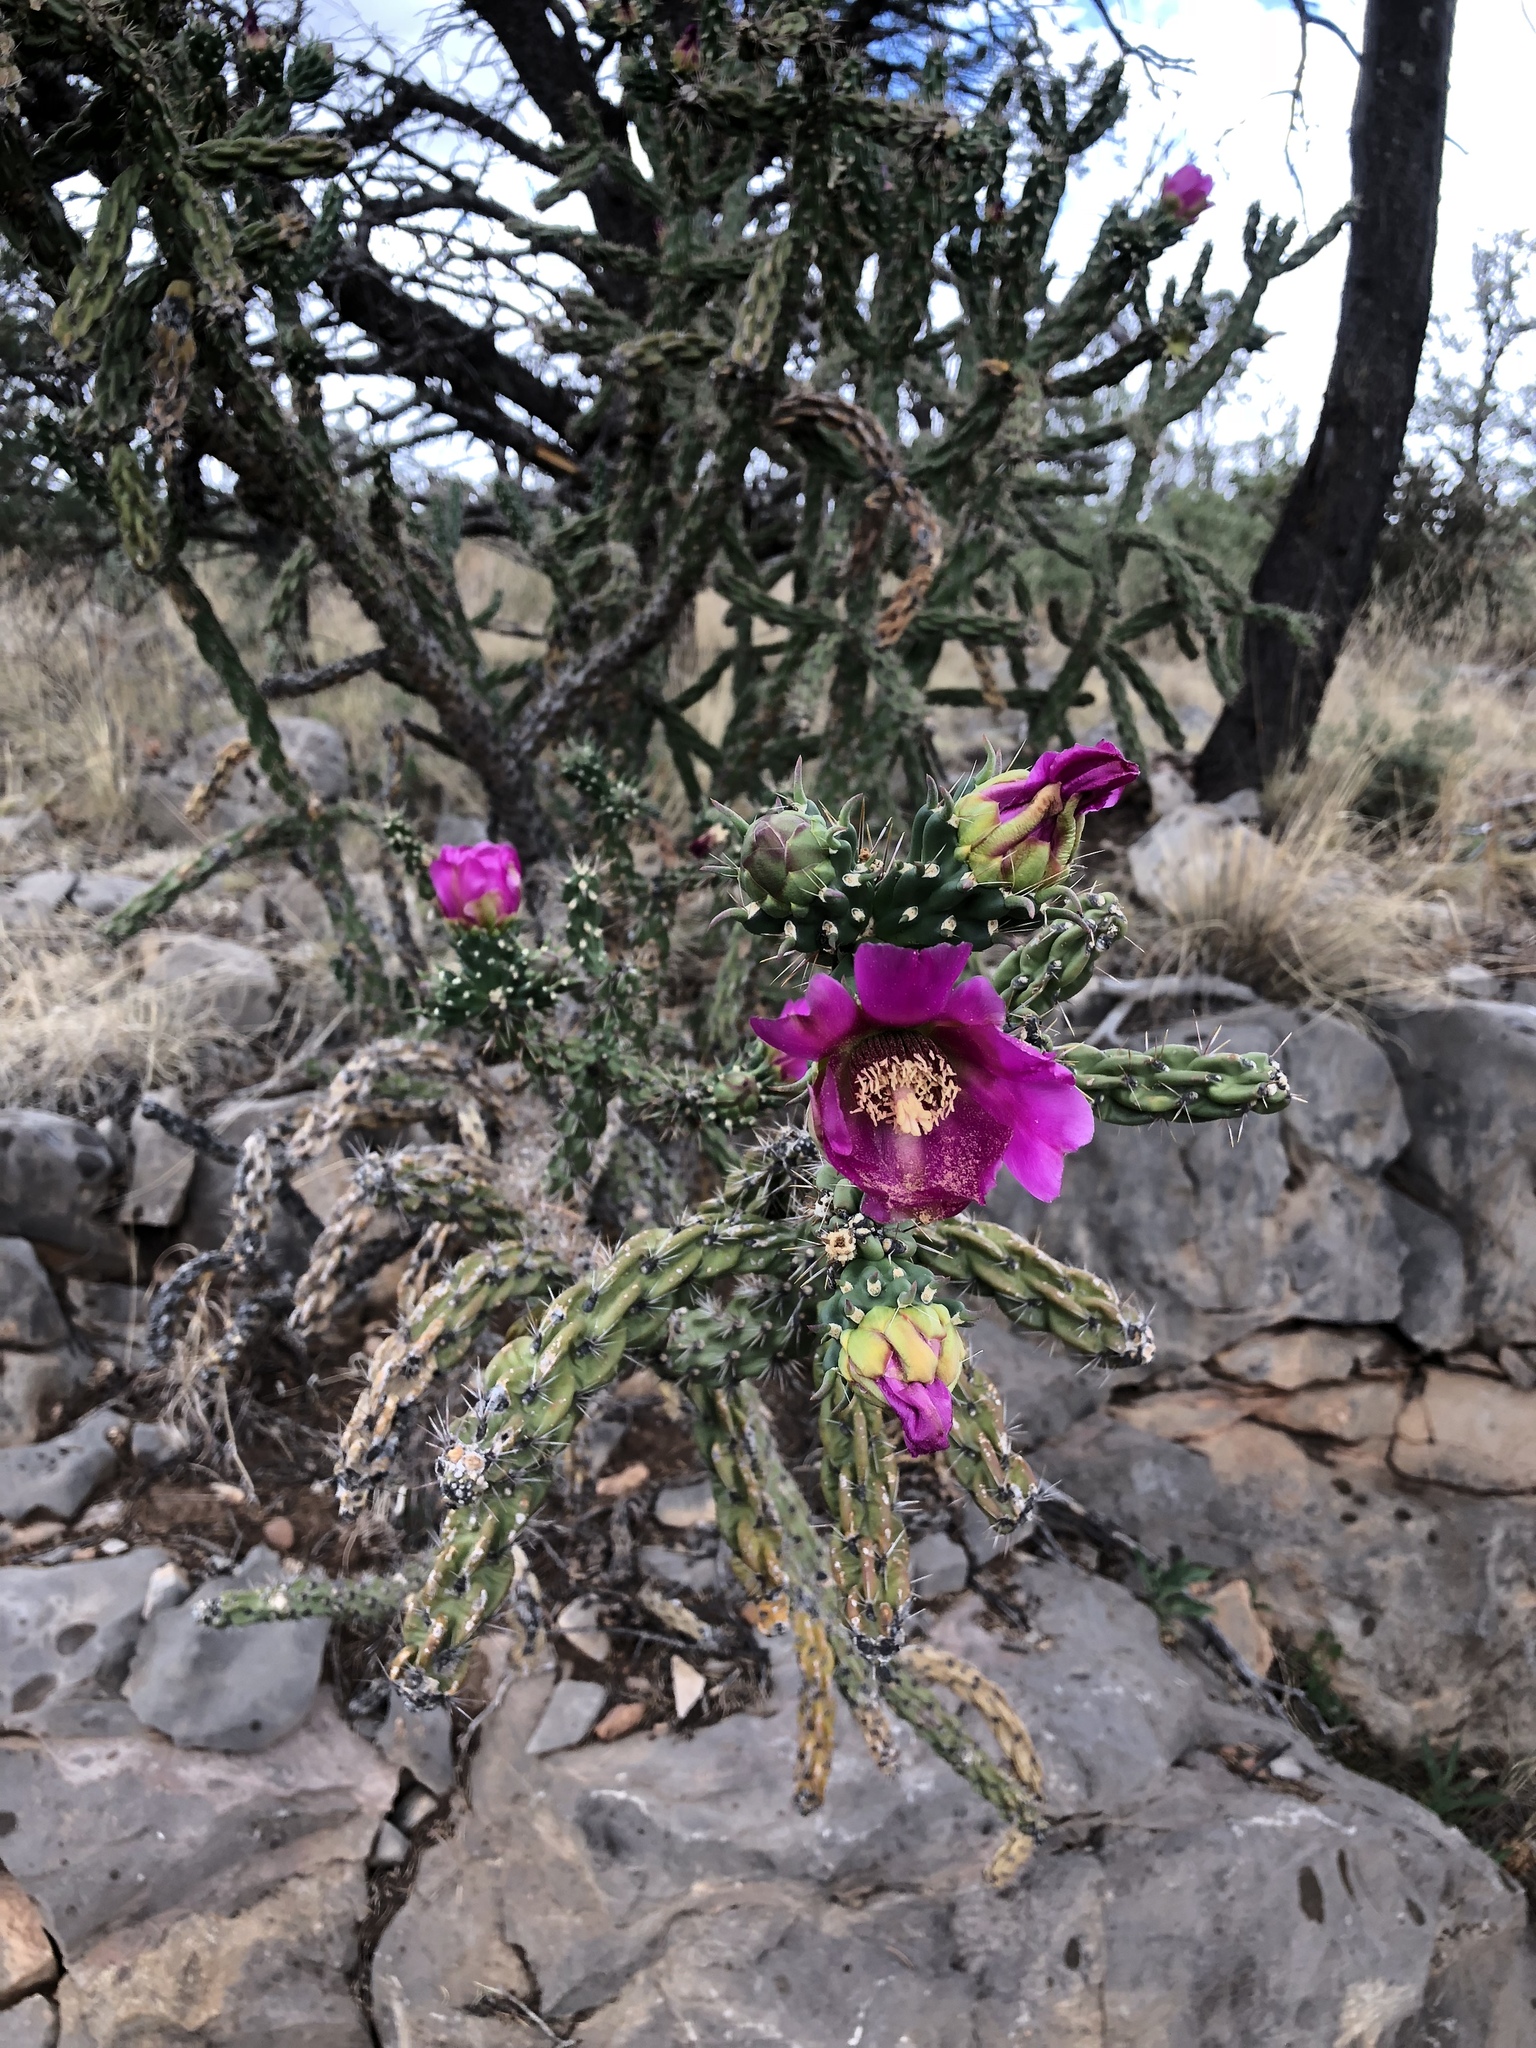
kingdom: Plantae
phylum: Tracheophyta
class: Magnoliopsida
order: Caryophyllales
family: Cactaceae
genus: Cylindropuntia
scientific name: Cylindropuntia imbricata
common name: Candelabrum cactus
